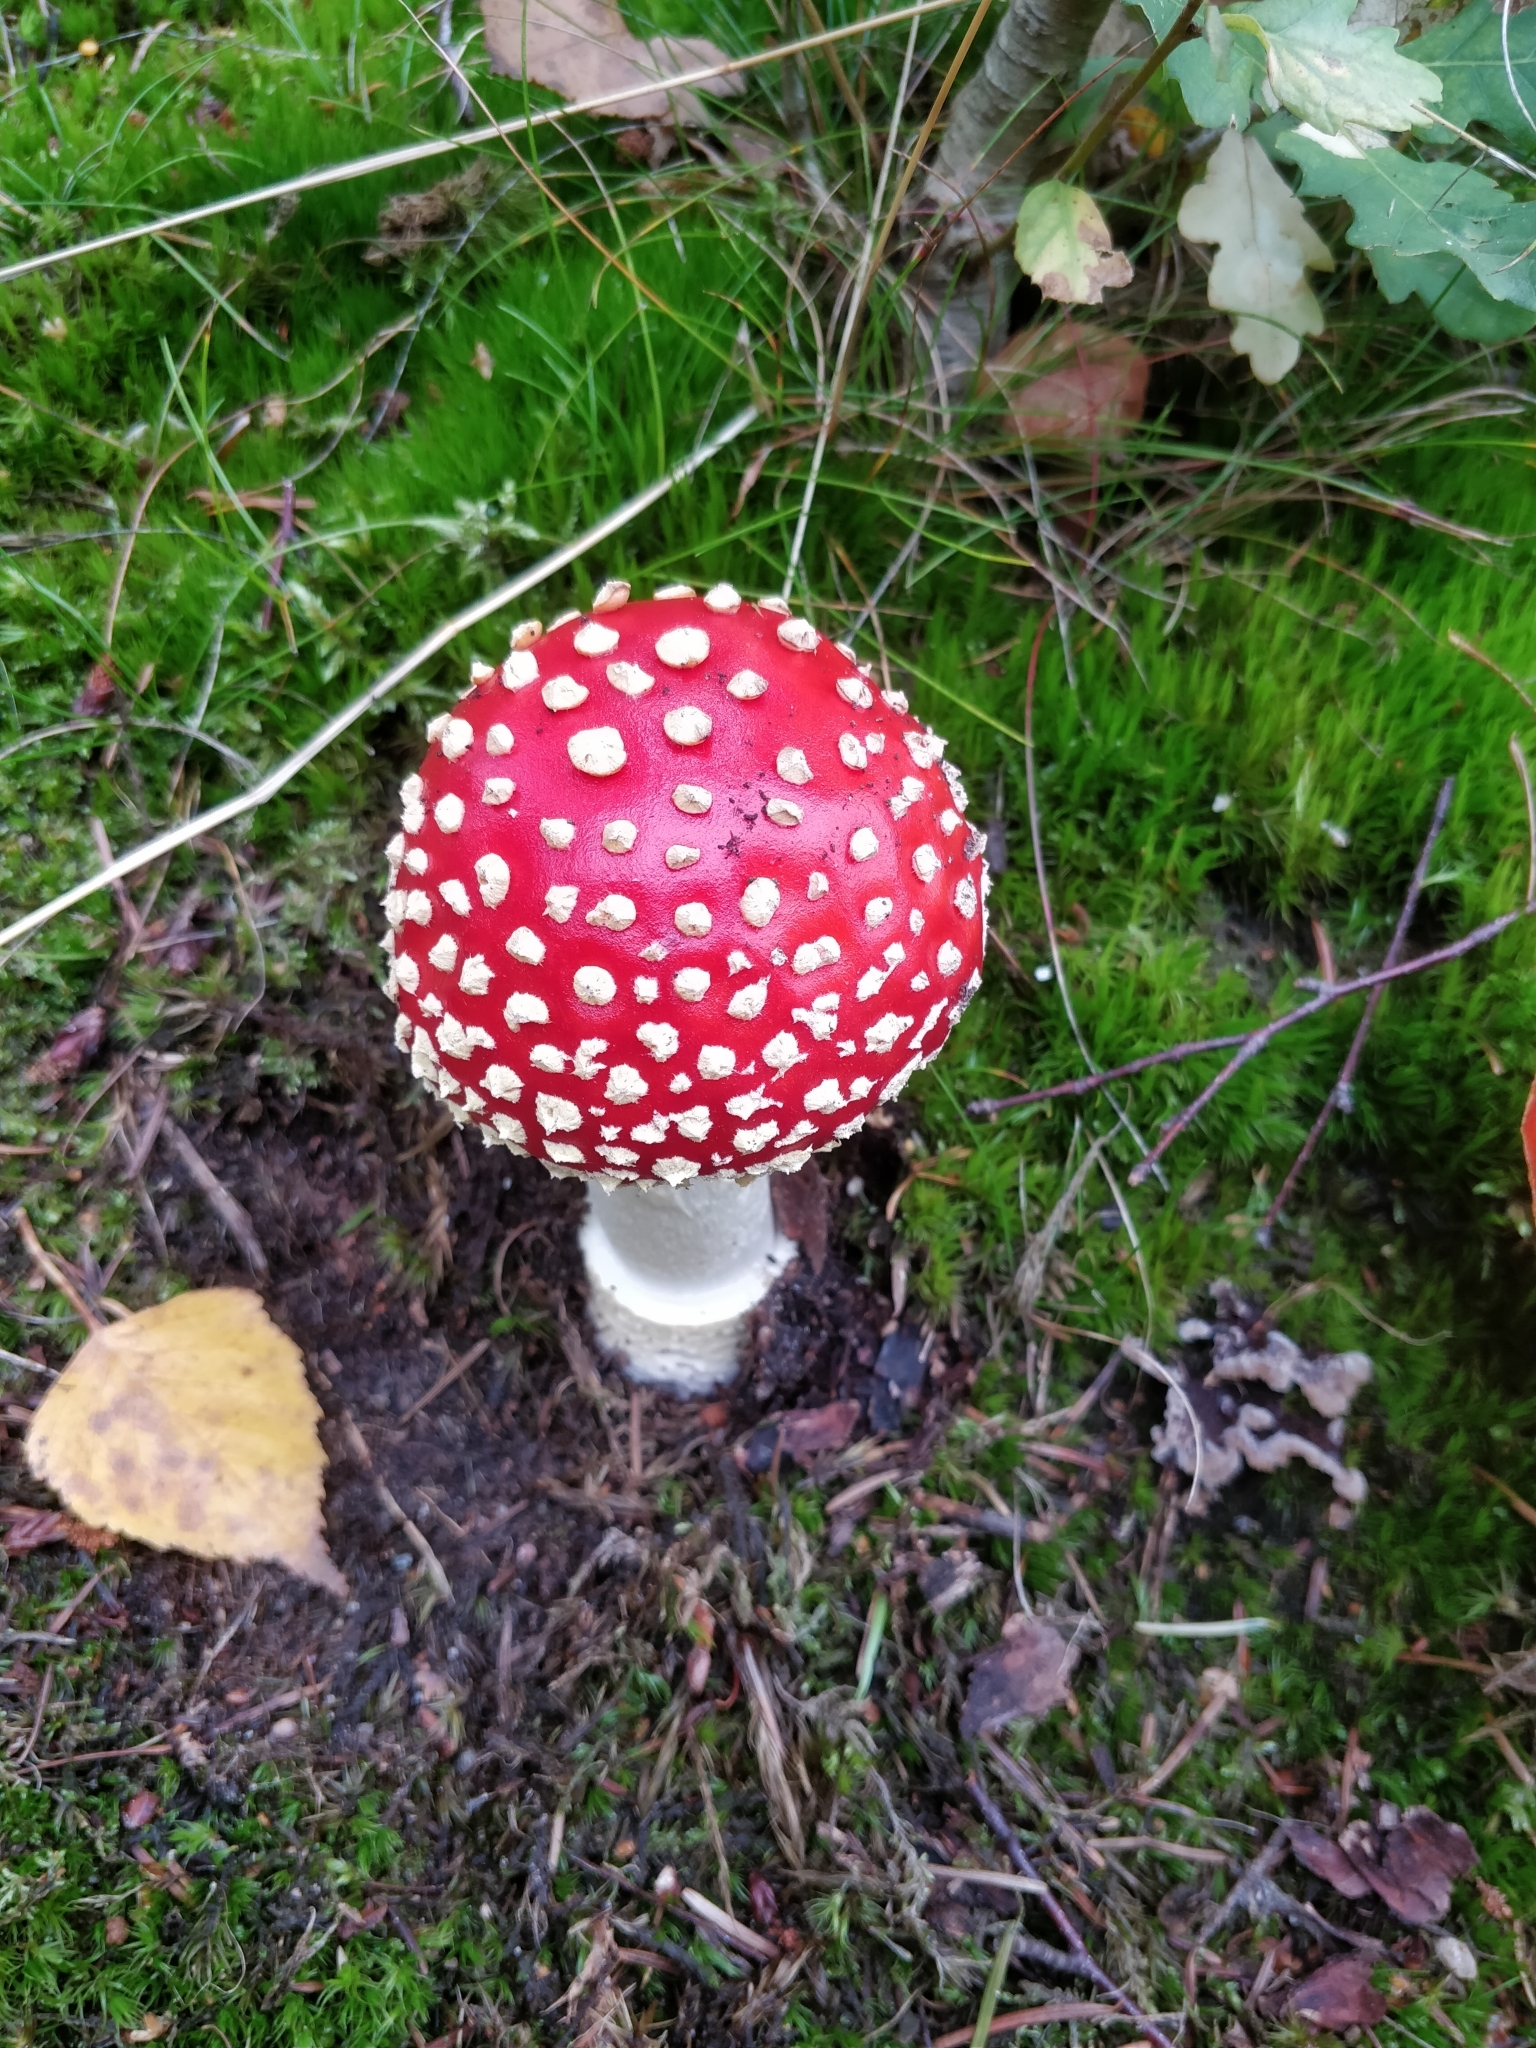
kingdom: Fungi
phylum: Basidiomycota
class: Agaricomycetes
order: Agaricales
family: Amanitaceae
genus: Amanita
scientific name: Amanita muscaria
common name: Fly agaric
